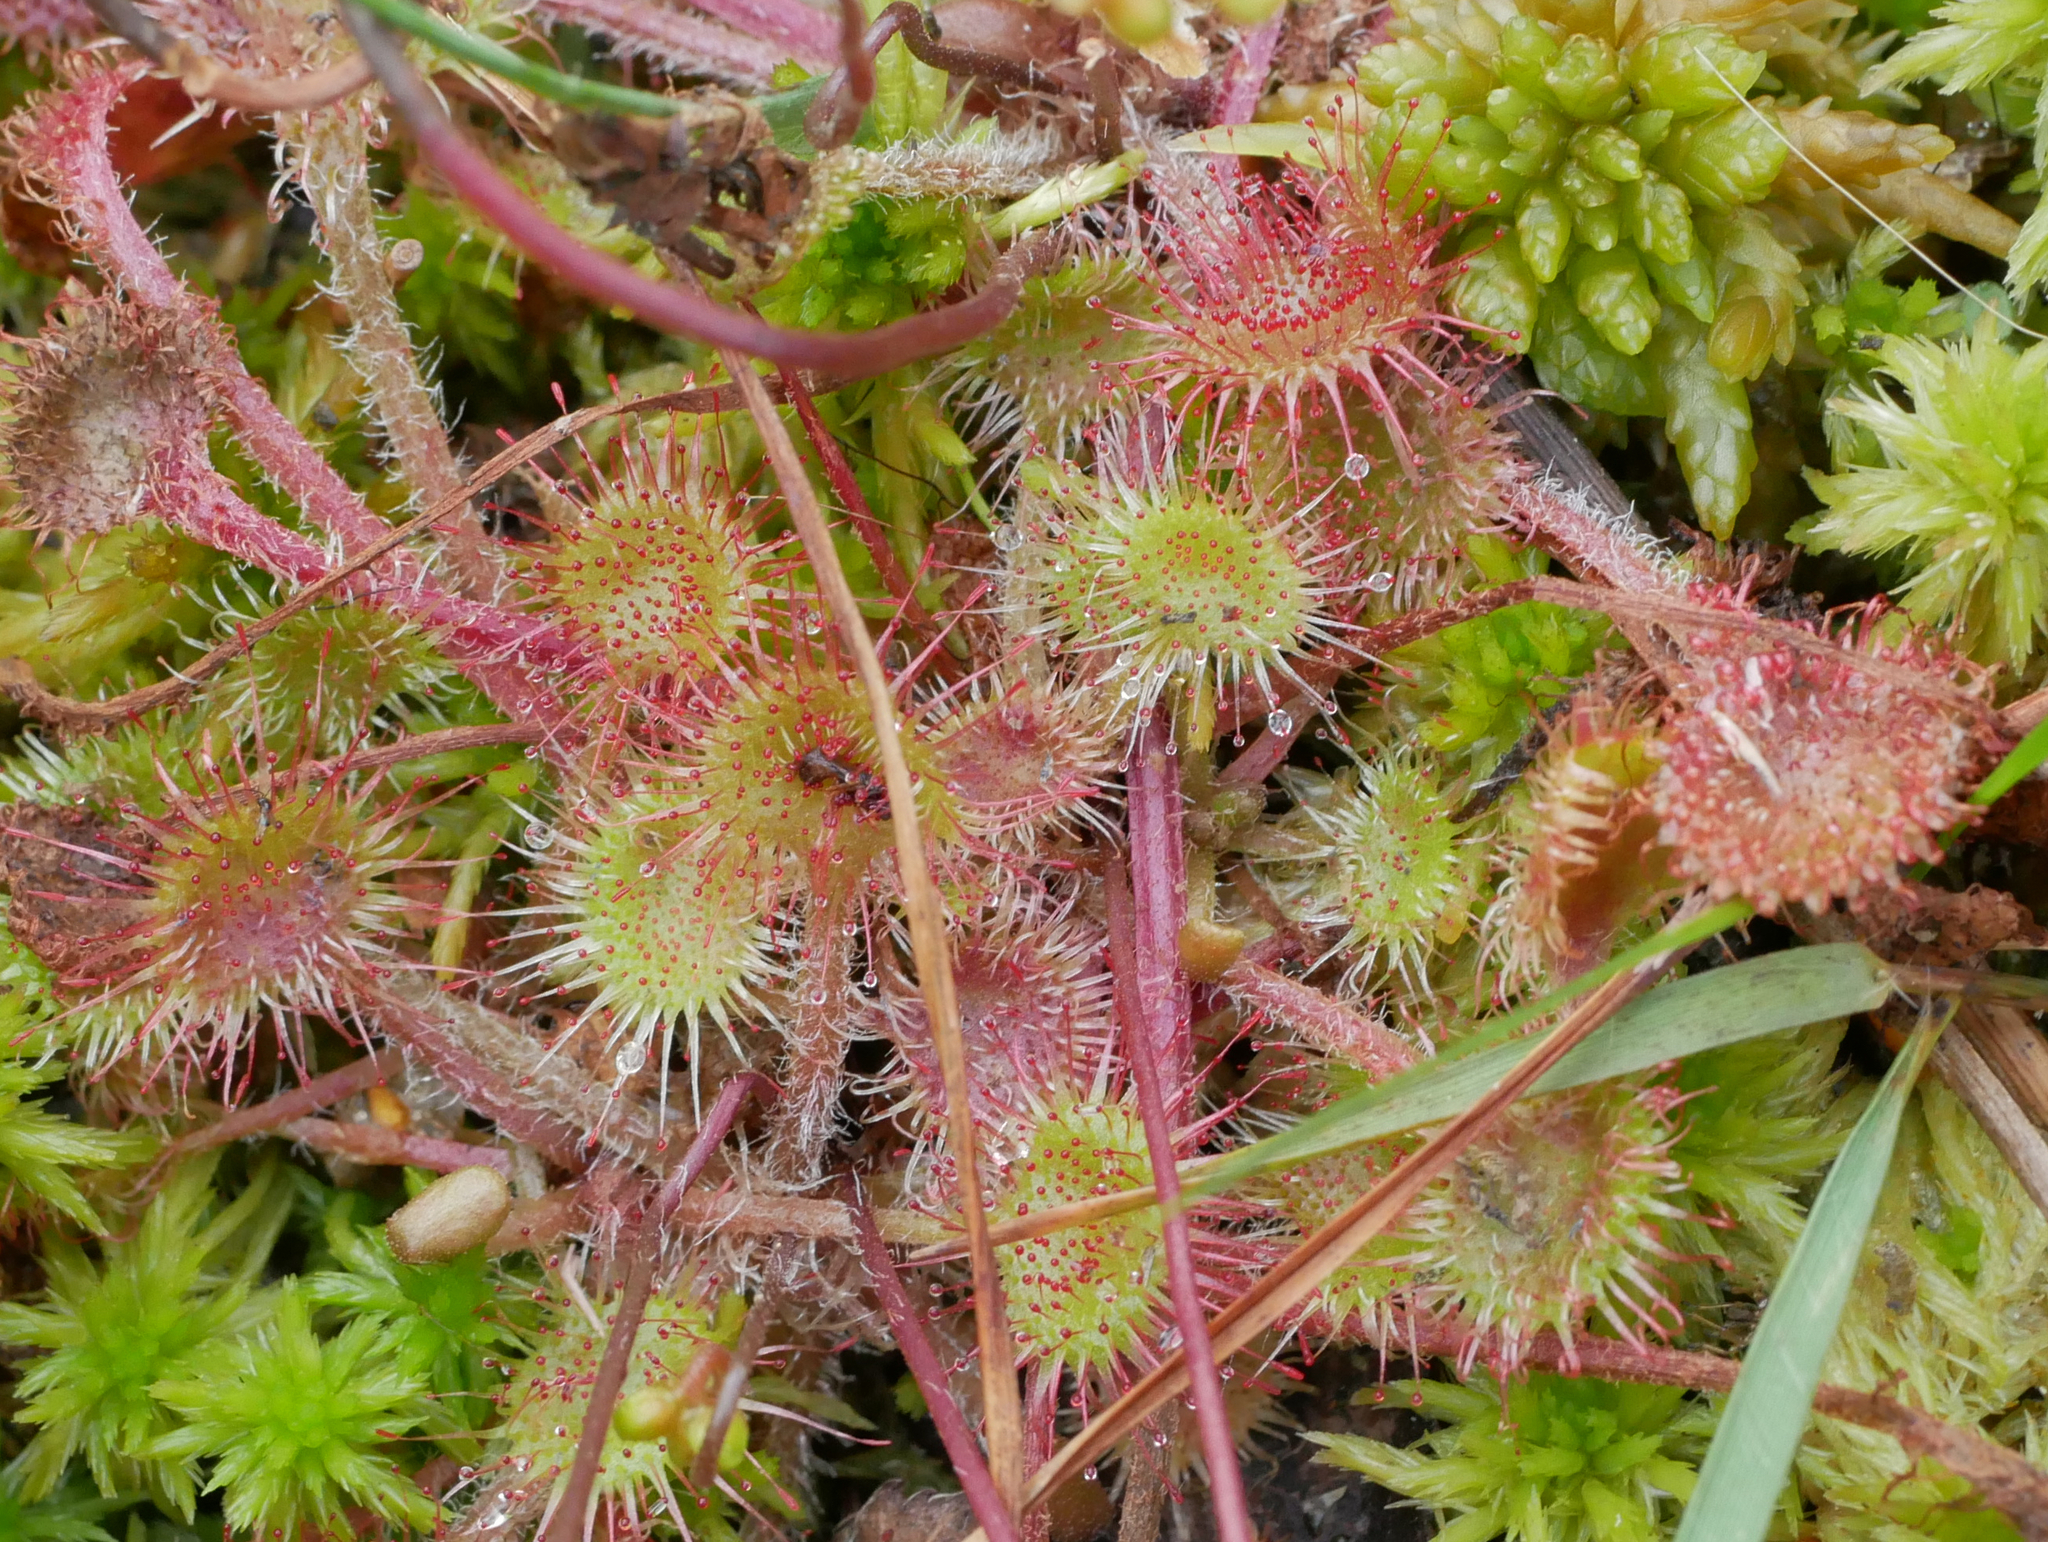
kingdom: Plantae
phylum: Tracheophyta
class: Magnoliopsida
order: Caryophyllales
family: Droseraceae
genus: Drosera
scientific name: Drosera rotundifolia
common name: Round-leaved sundew
